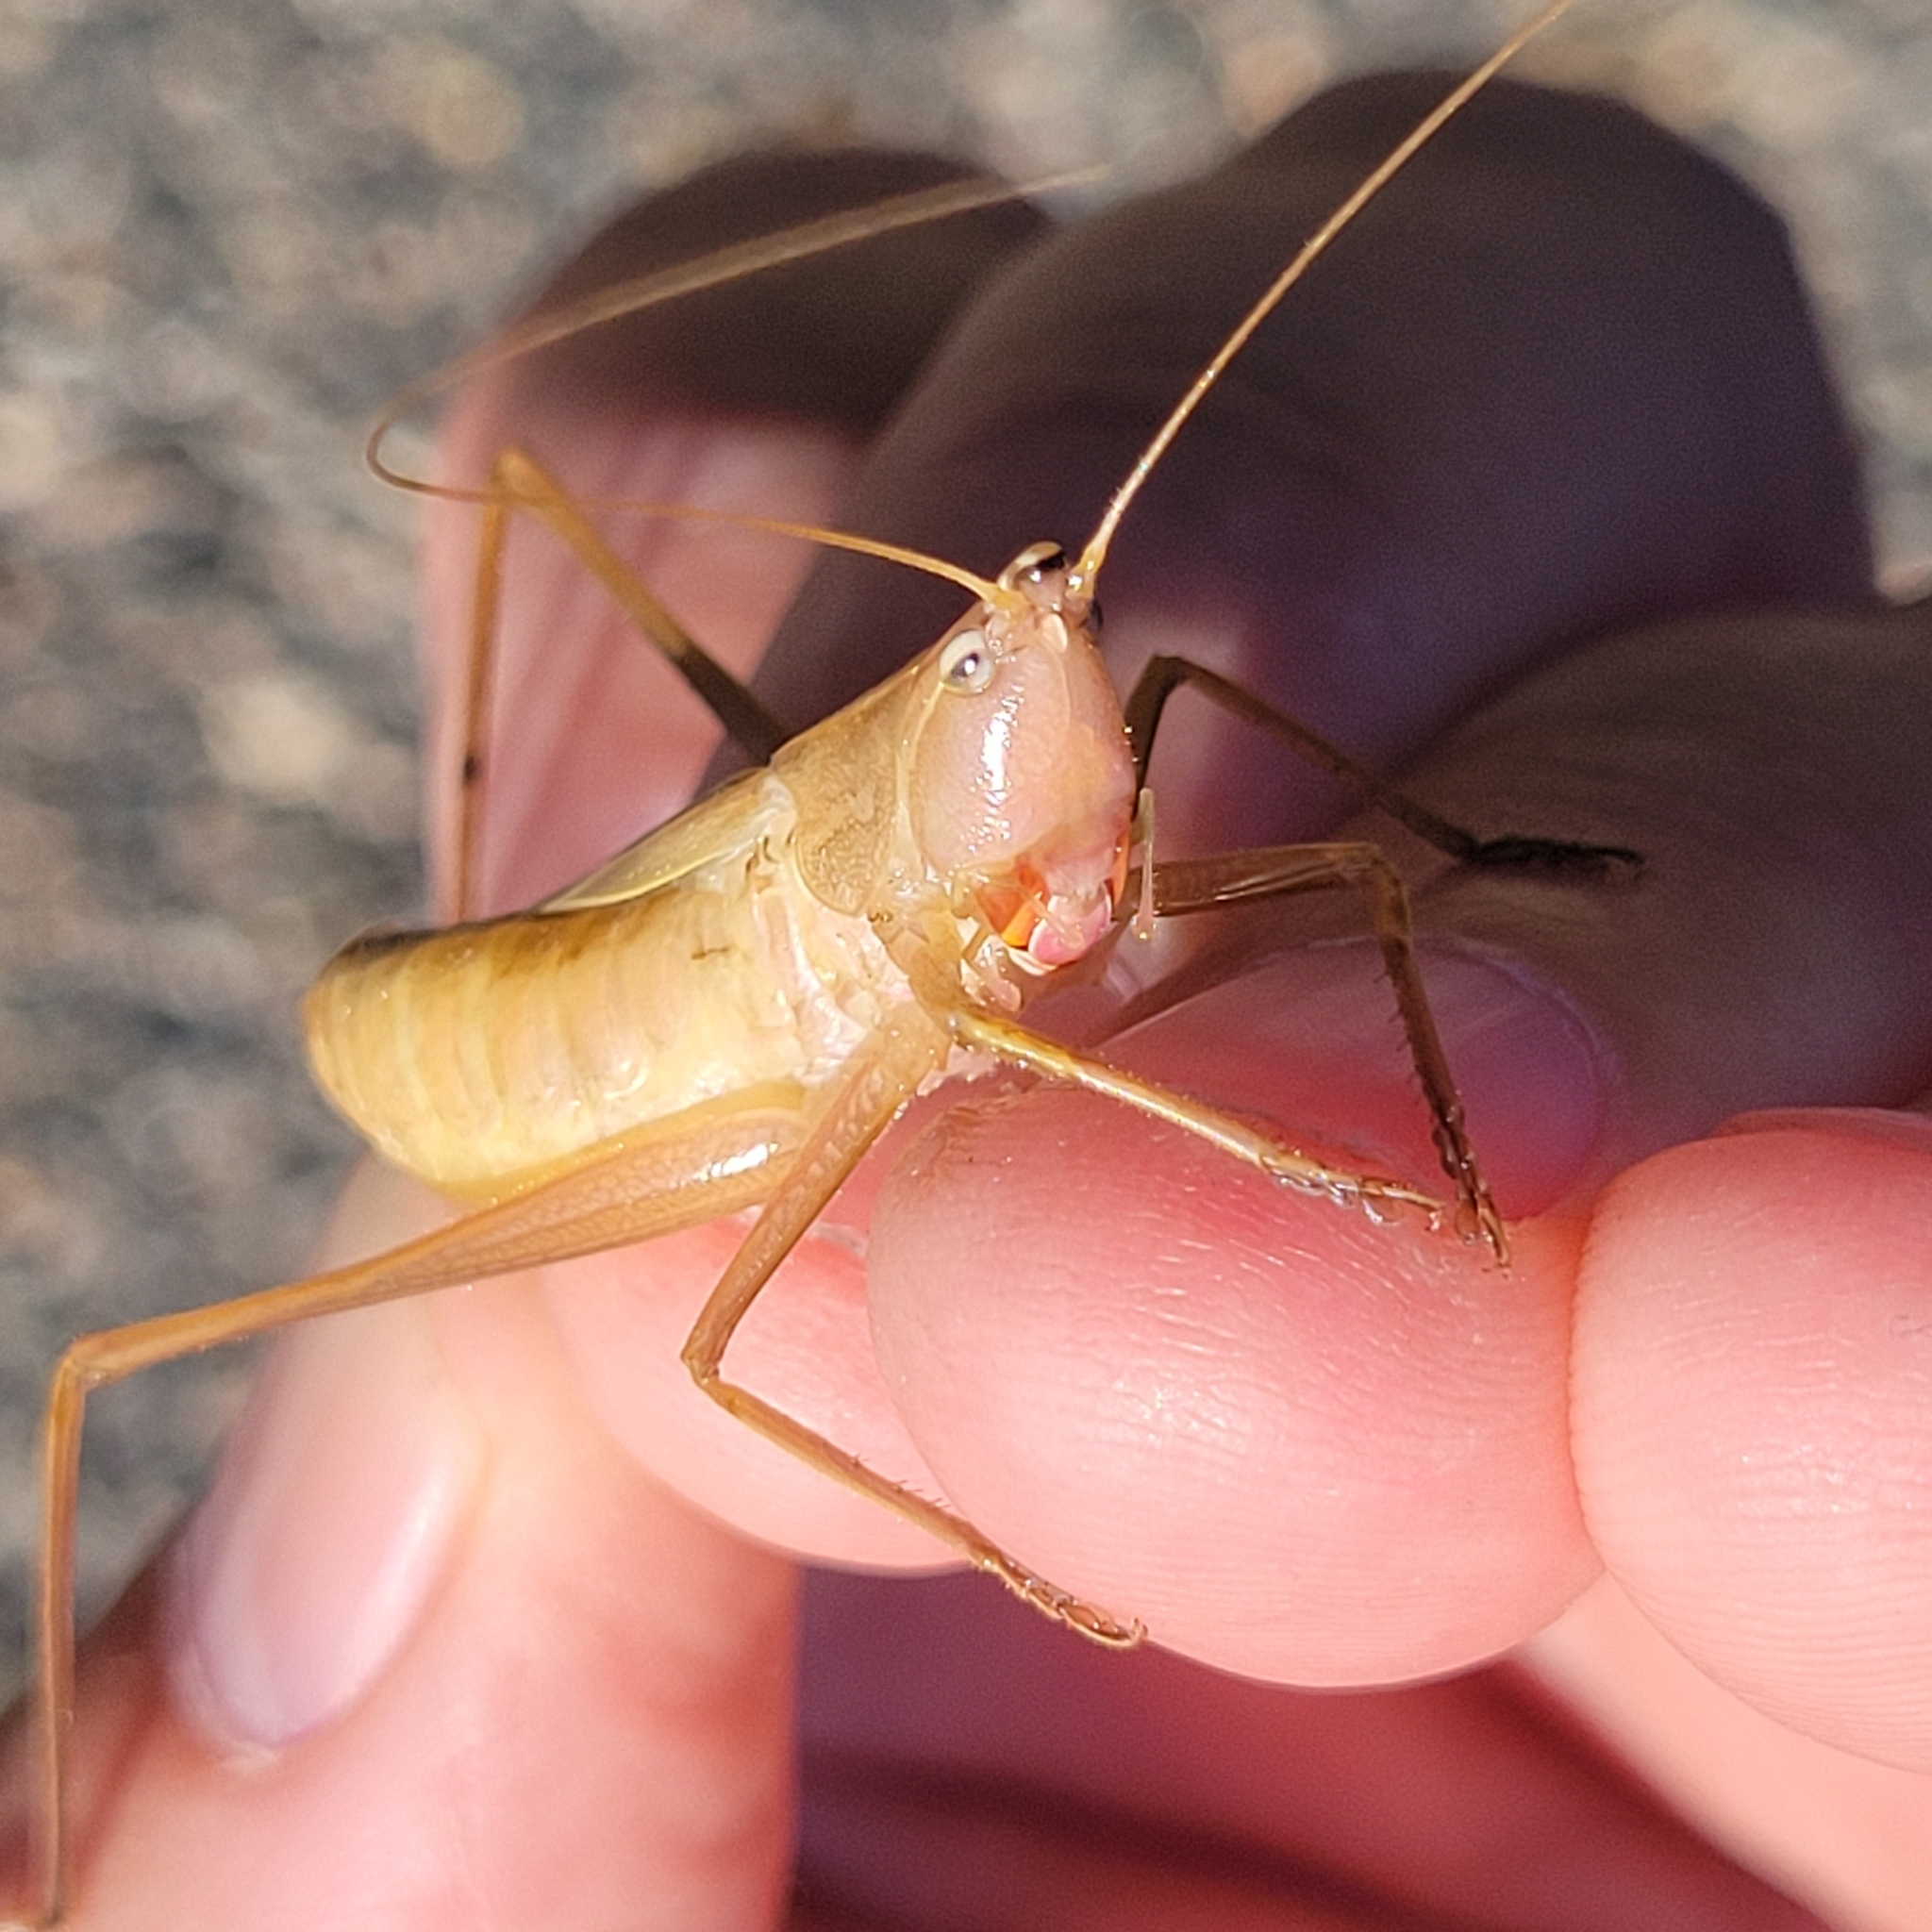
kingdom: Animalia
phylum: Arthropoda
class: Insecta
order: Orthoptera
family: Tettigoniidae
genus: Neoconocephalus
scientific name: Neoconocephalus retusus
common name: Round-tipped conehead
